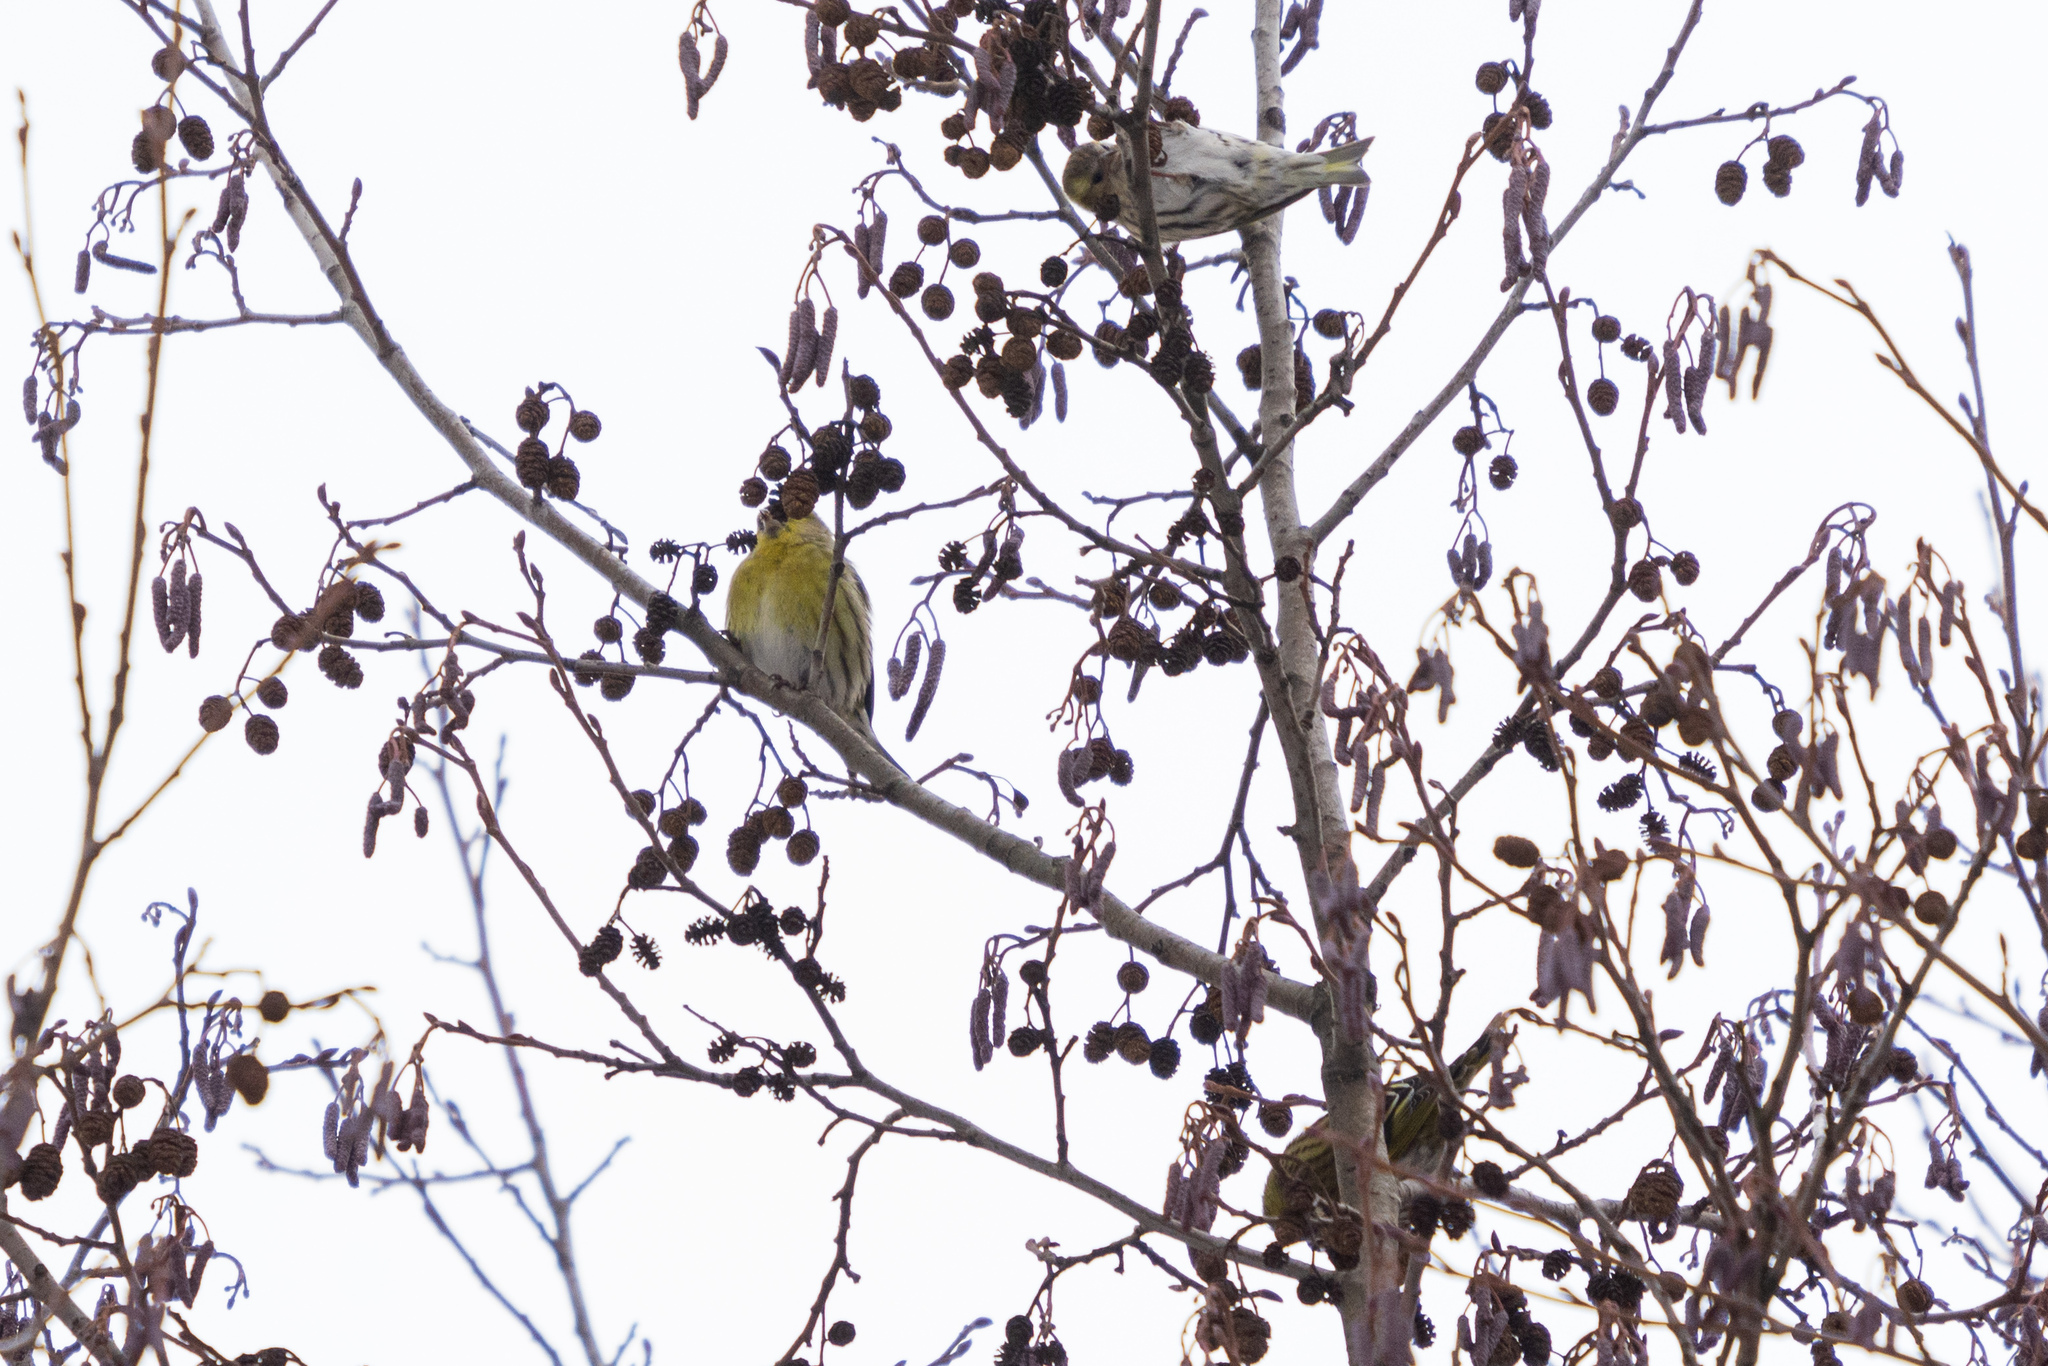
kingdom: Animalia
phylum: Chordata
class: Aves
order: Passeriformes
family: Fringillidae
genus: Spinus
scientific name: Spinus spinus
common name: Eurasian siskin
